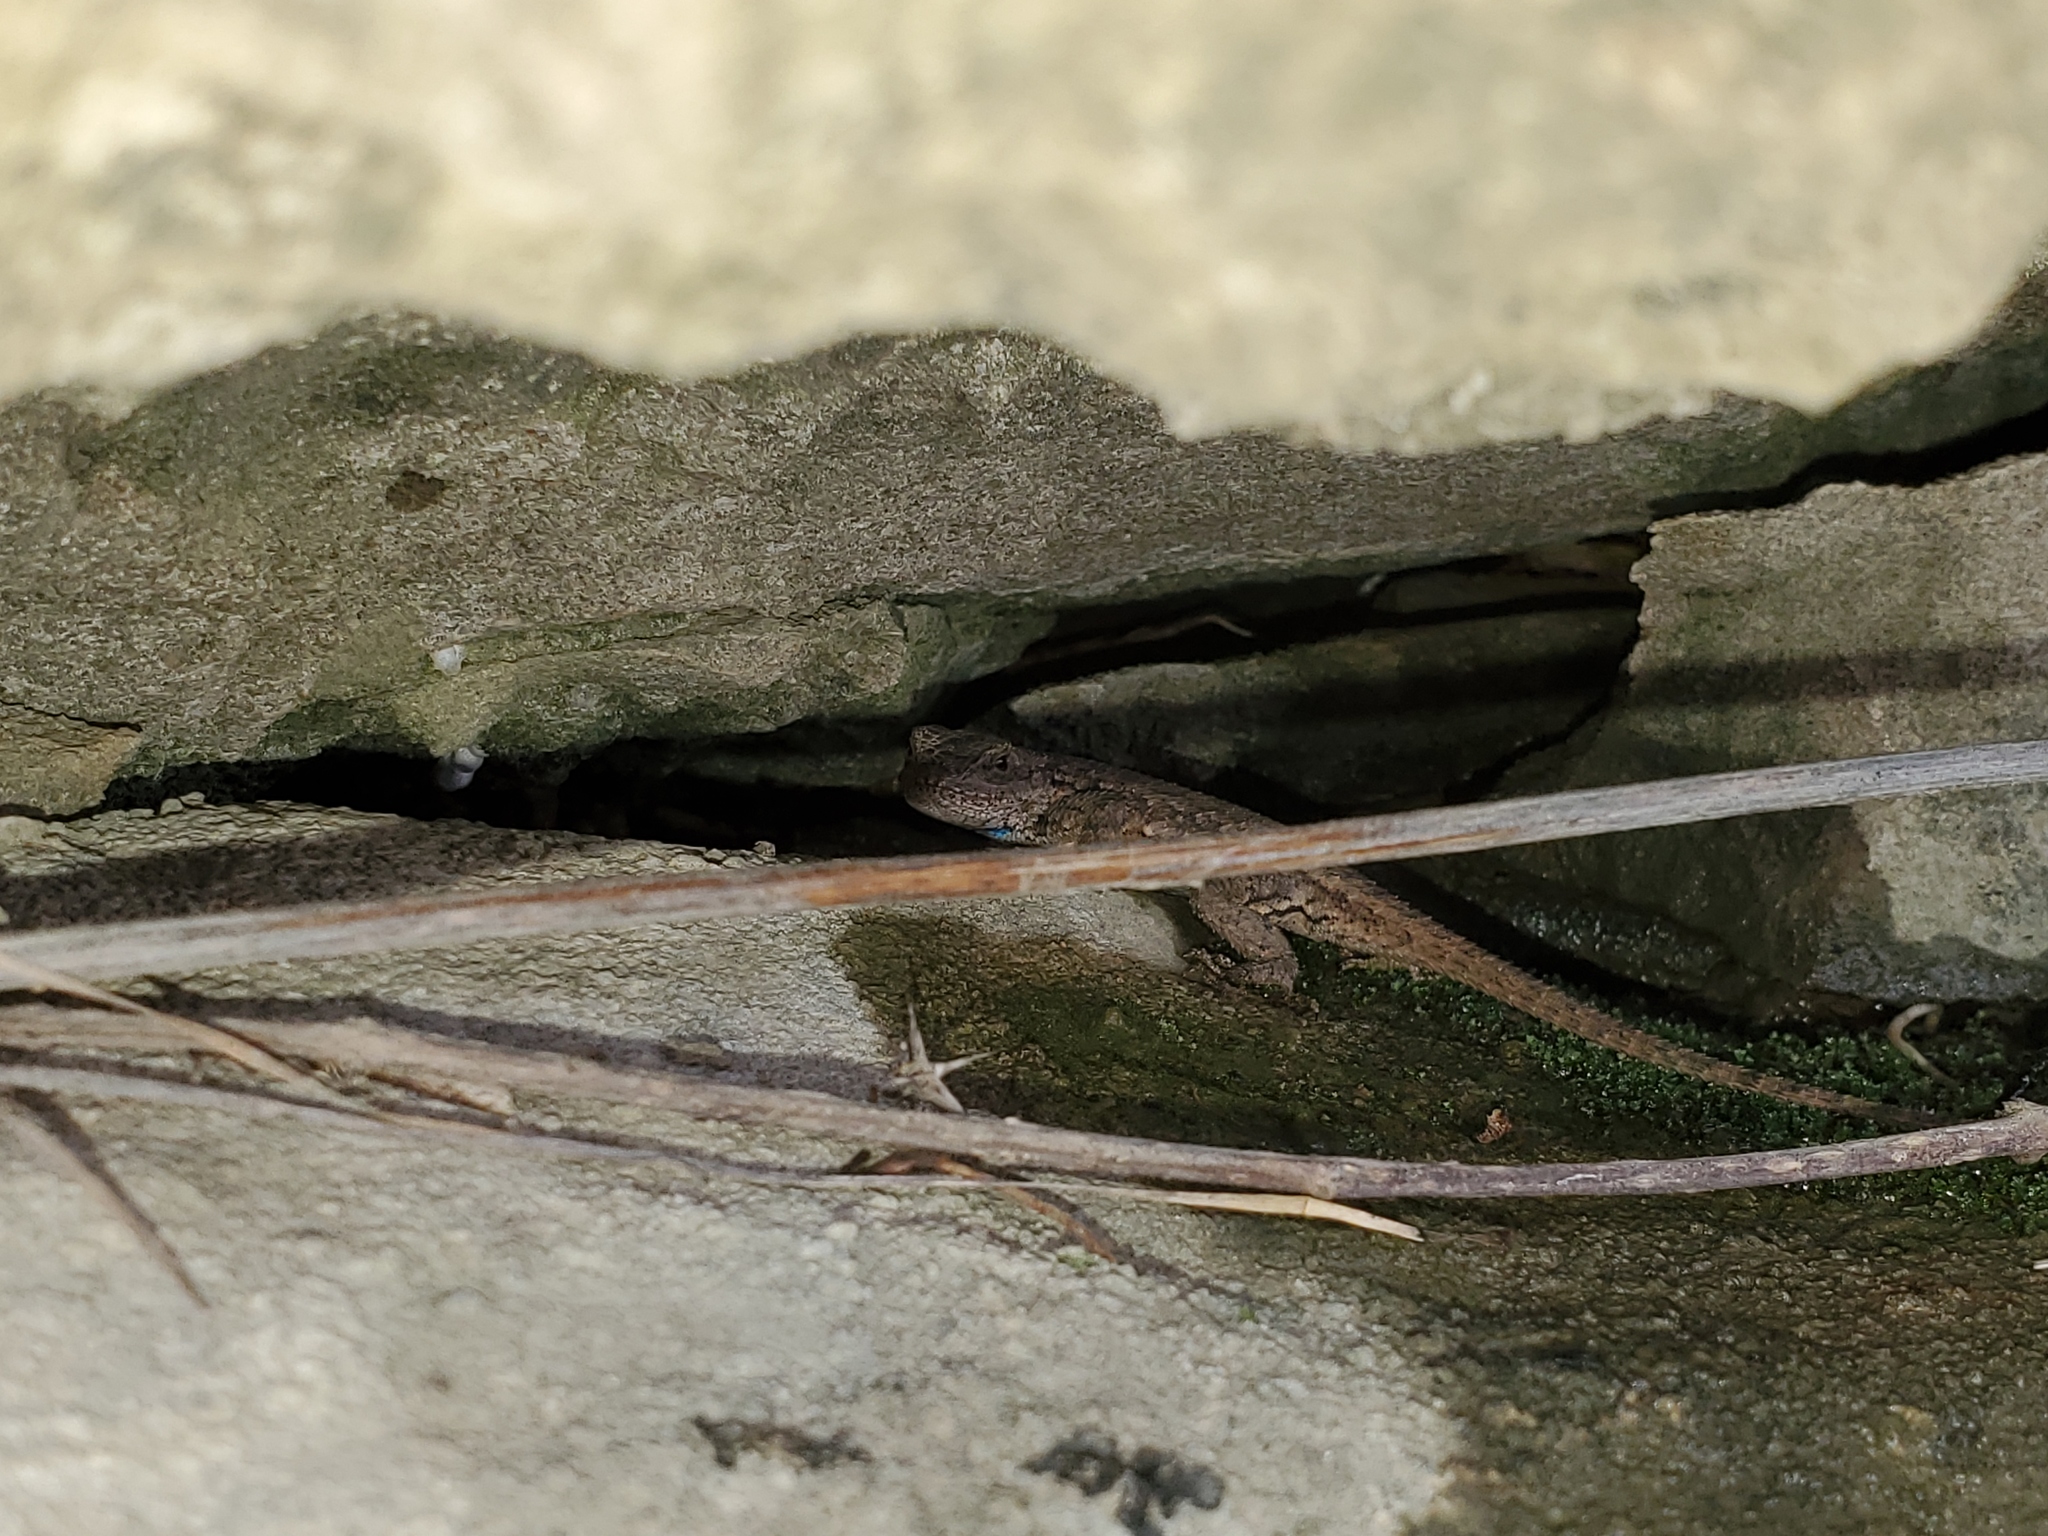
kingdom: Animalia
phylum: Chordata
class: Squamata
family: Phrynosomatidae
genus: Sceloporus
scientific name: Sceloporus undulatus
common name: Eastern fence lizard
